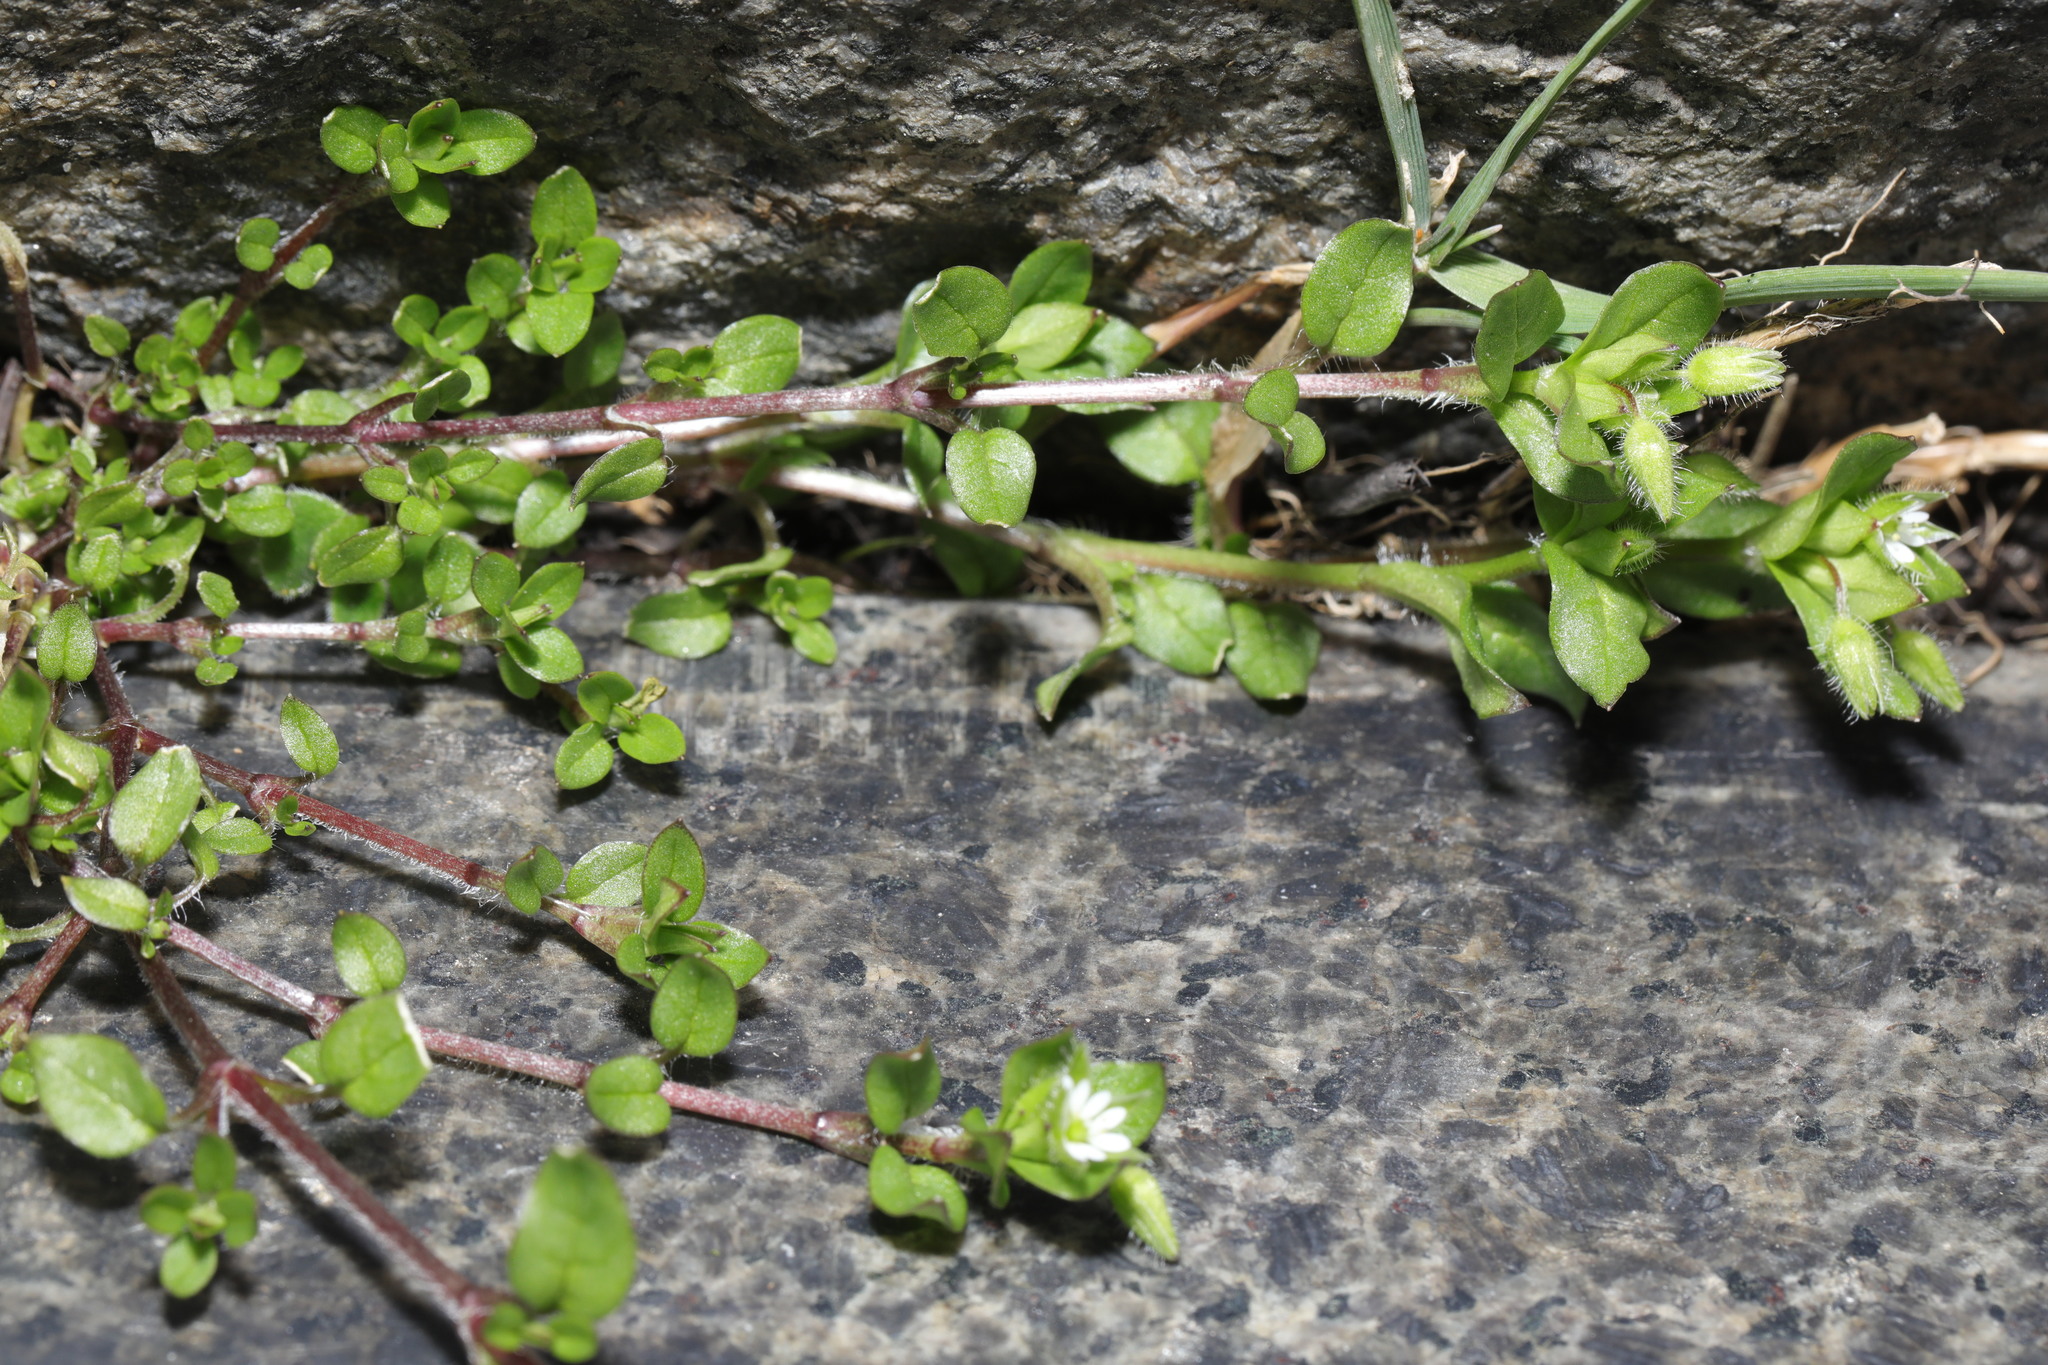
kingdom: Plantae
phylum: Tracheophyta
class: Magnoliopsida
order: Caryophyllales
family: Caryophyllaceae
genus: Stellaria
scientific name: Stellaria media
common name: Common chickweed
